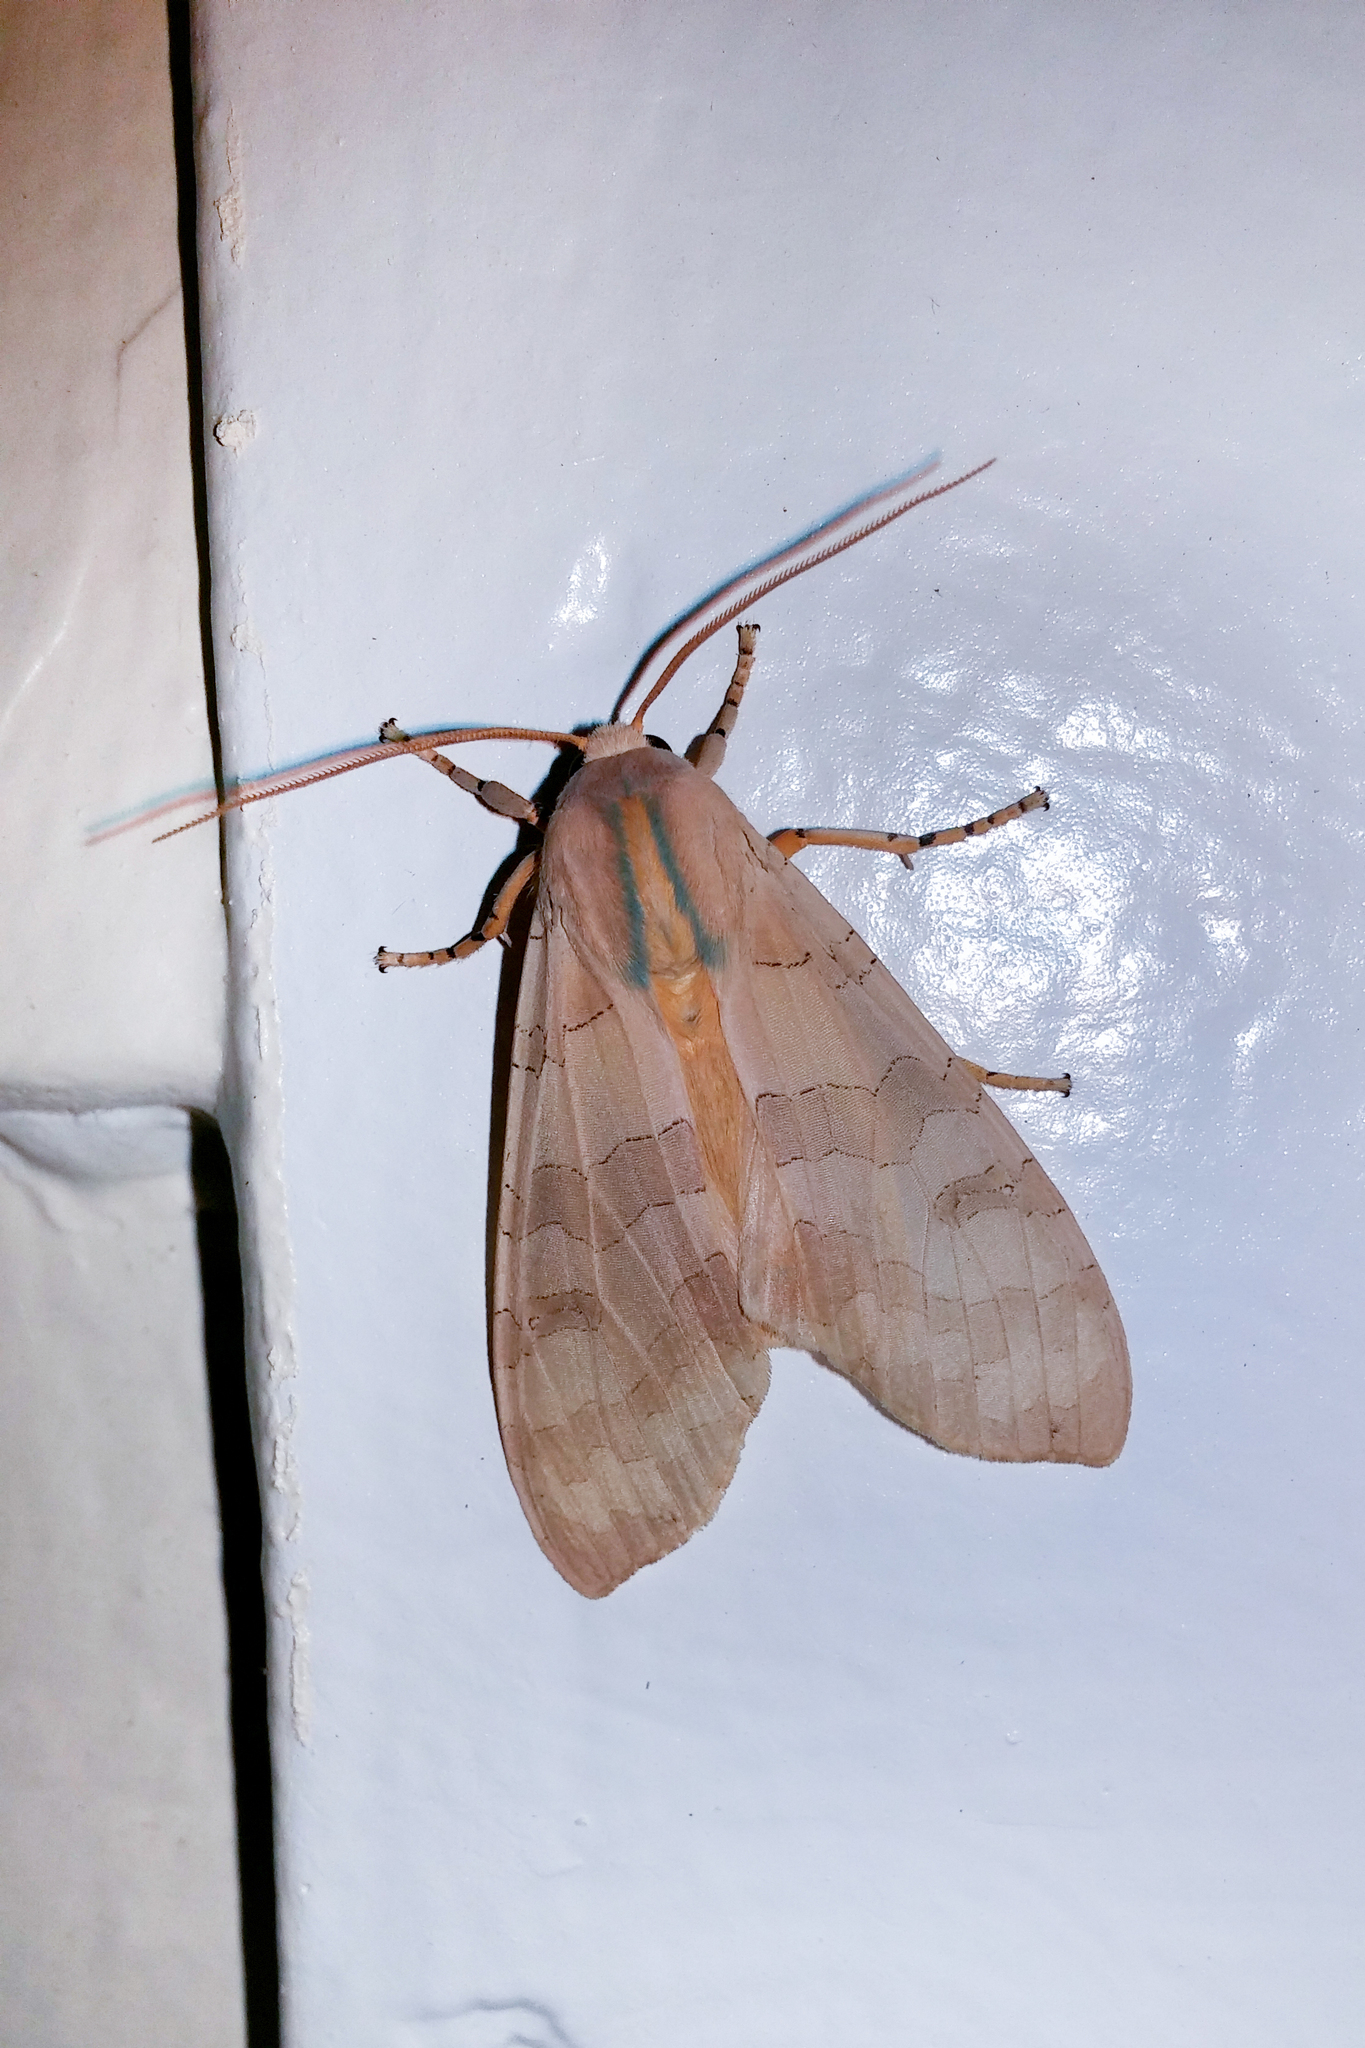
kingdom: Animalia
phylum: Arthropoda
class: Insecta
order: Lepidoptera
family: Erebidae
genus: Halysidota
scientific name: Halysidota
